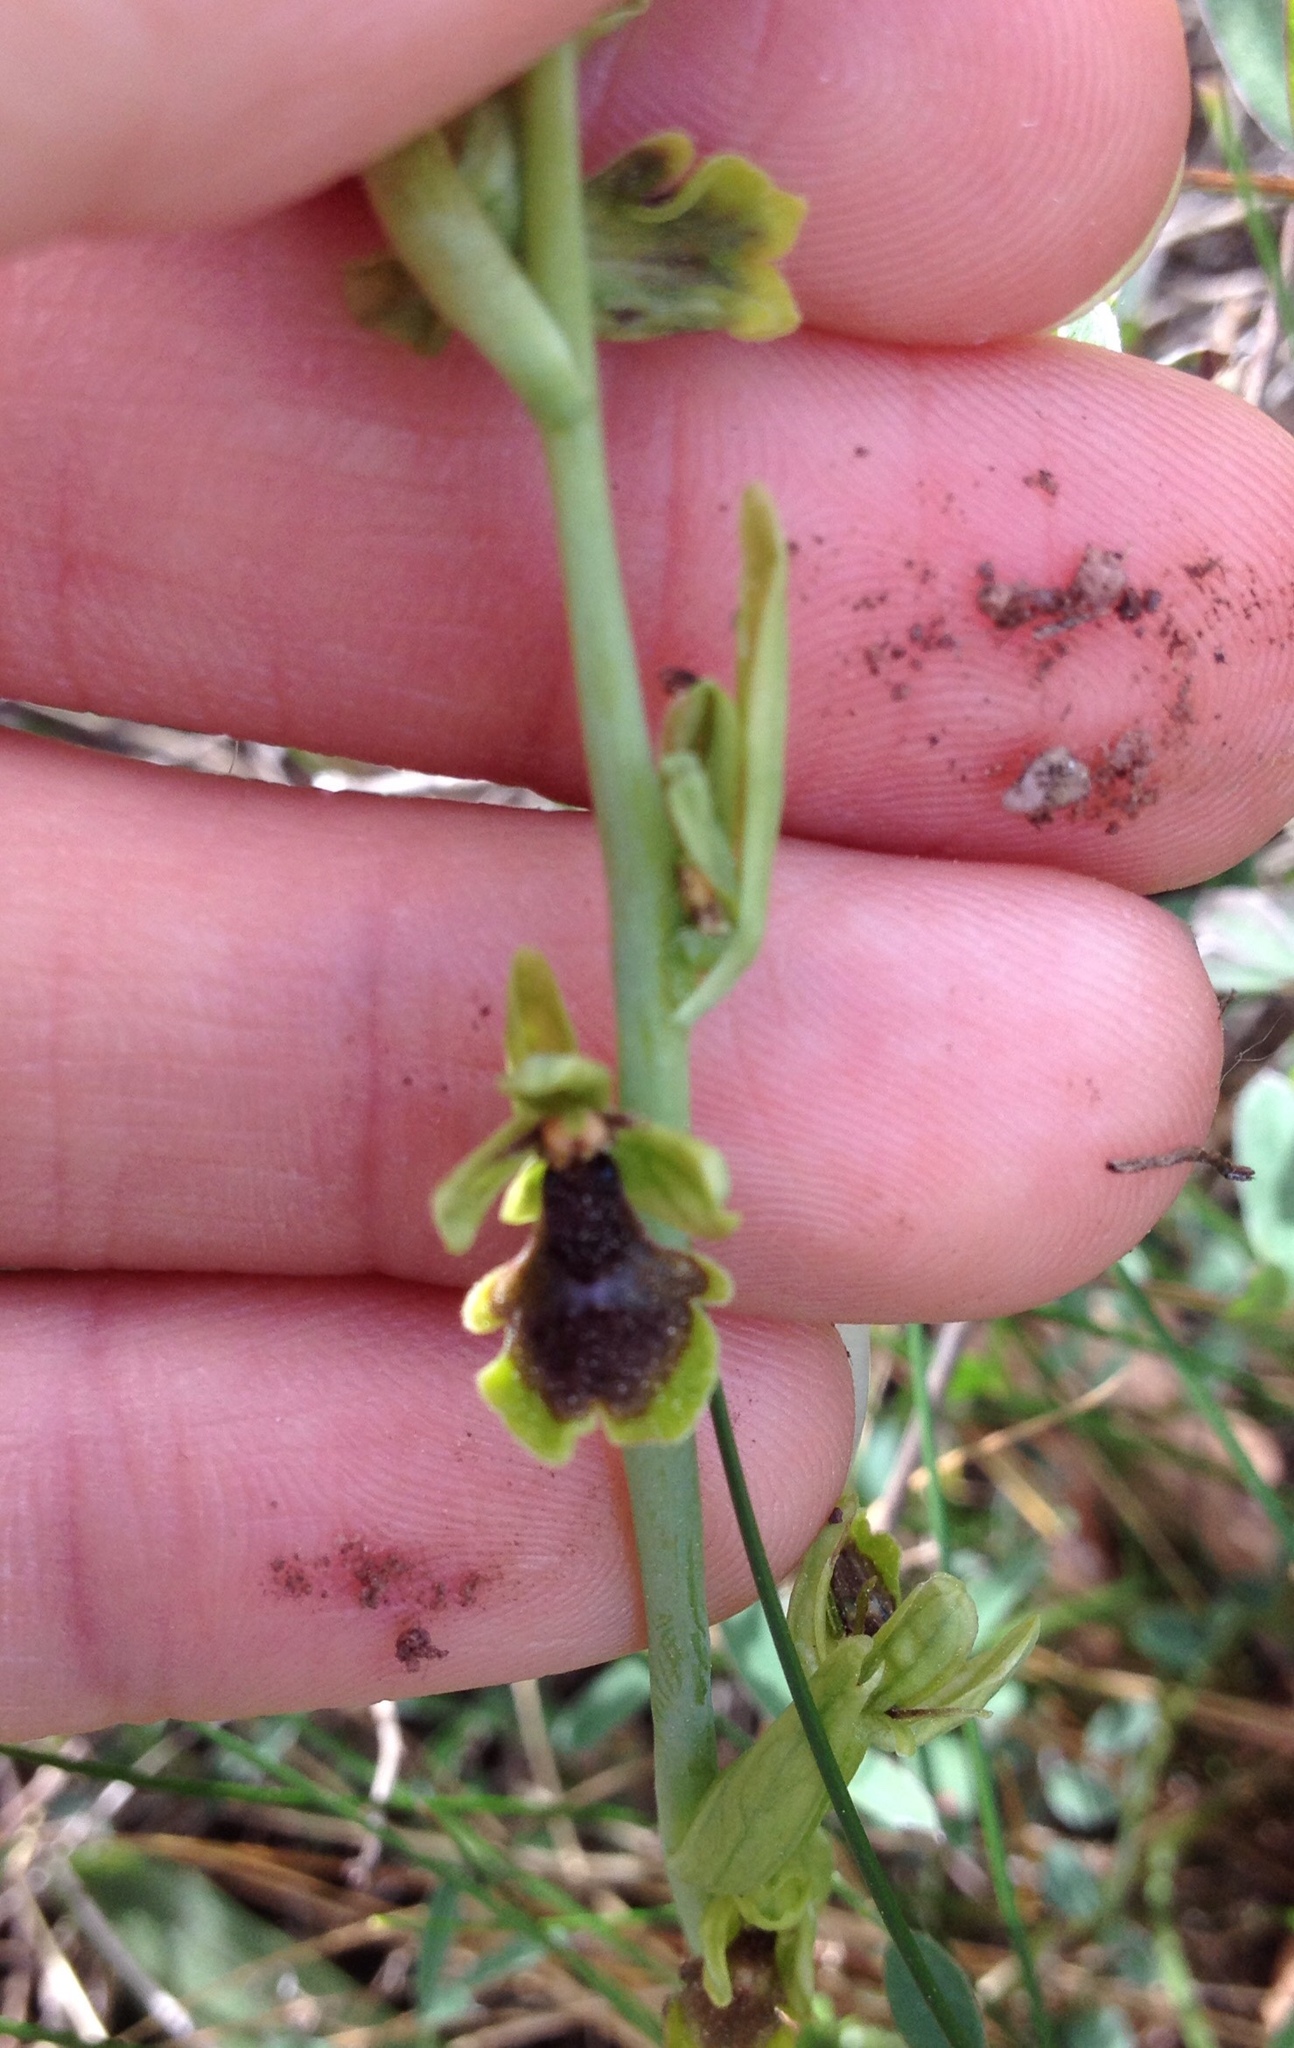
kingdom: Plantae
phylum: Tracheophyta
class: Liliopsida
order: Asparagales
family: Orchidaceae
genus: Ophrys
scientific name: Ophrys insectifera
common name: Fly orchid
